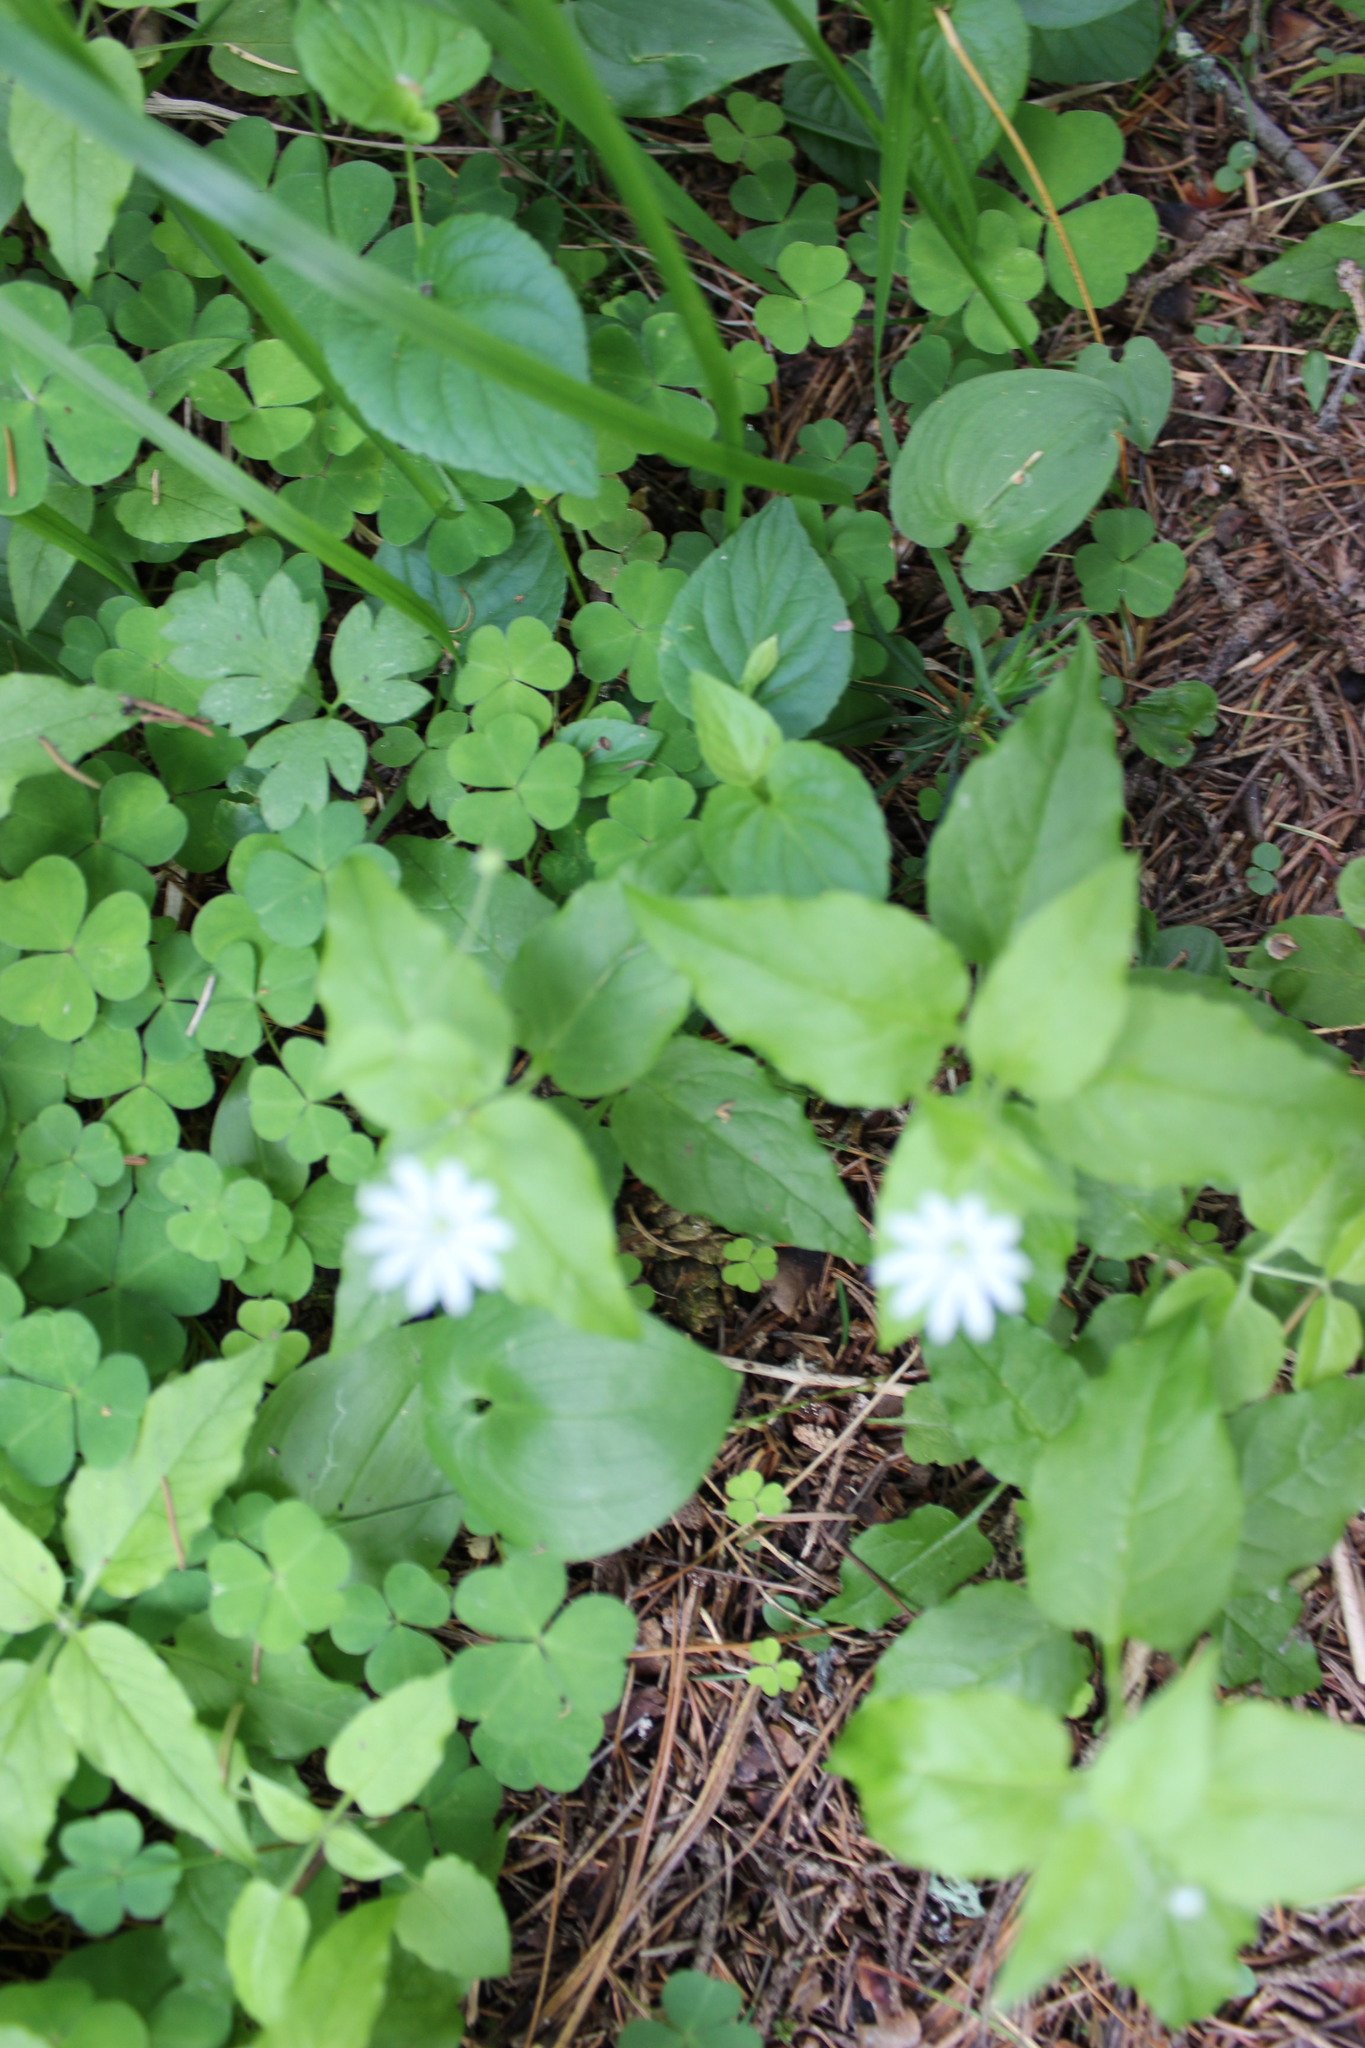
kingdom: Plantae
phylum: Tracheophyta
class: Magnoliopsida
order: Caryophyllales
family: Caryophyllaceae
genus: Stellaria
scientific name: Stellaria bungeana
